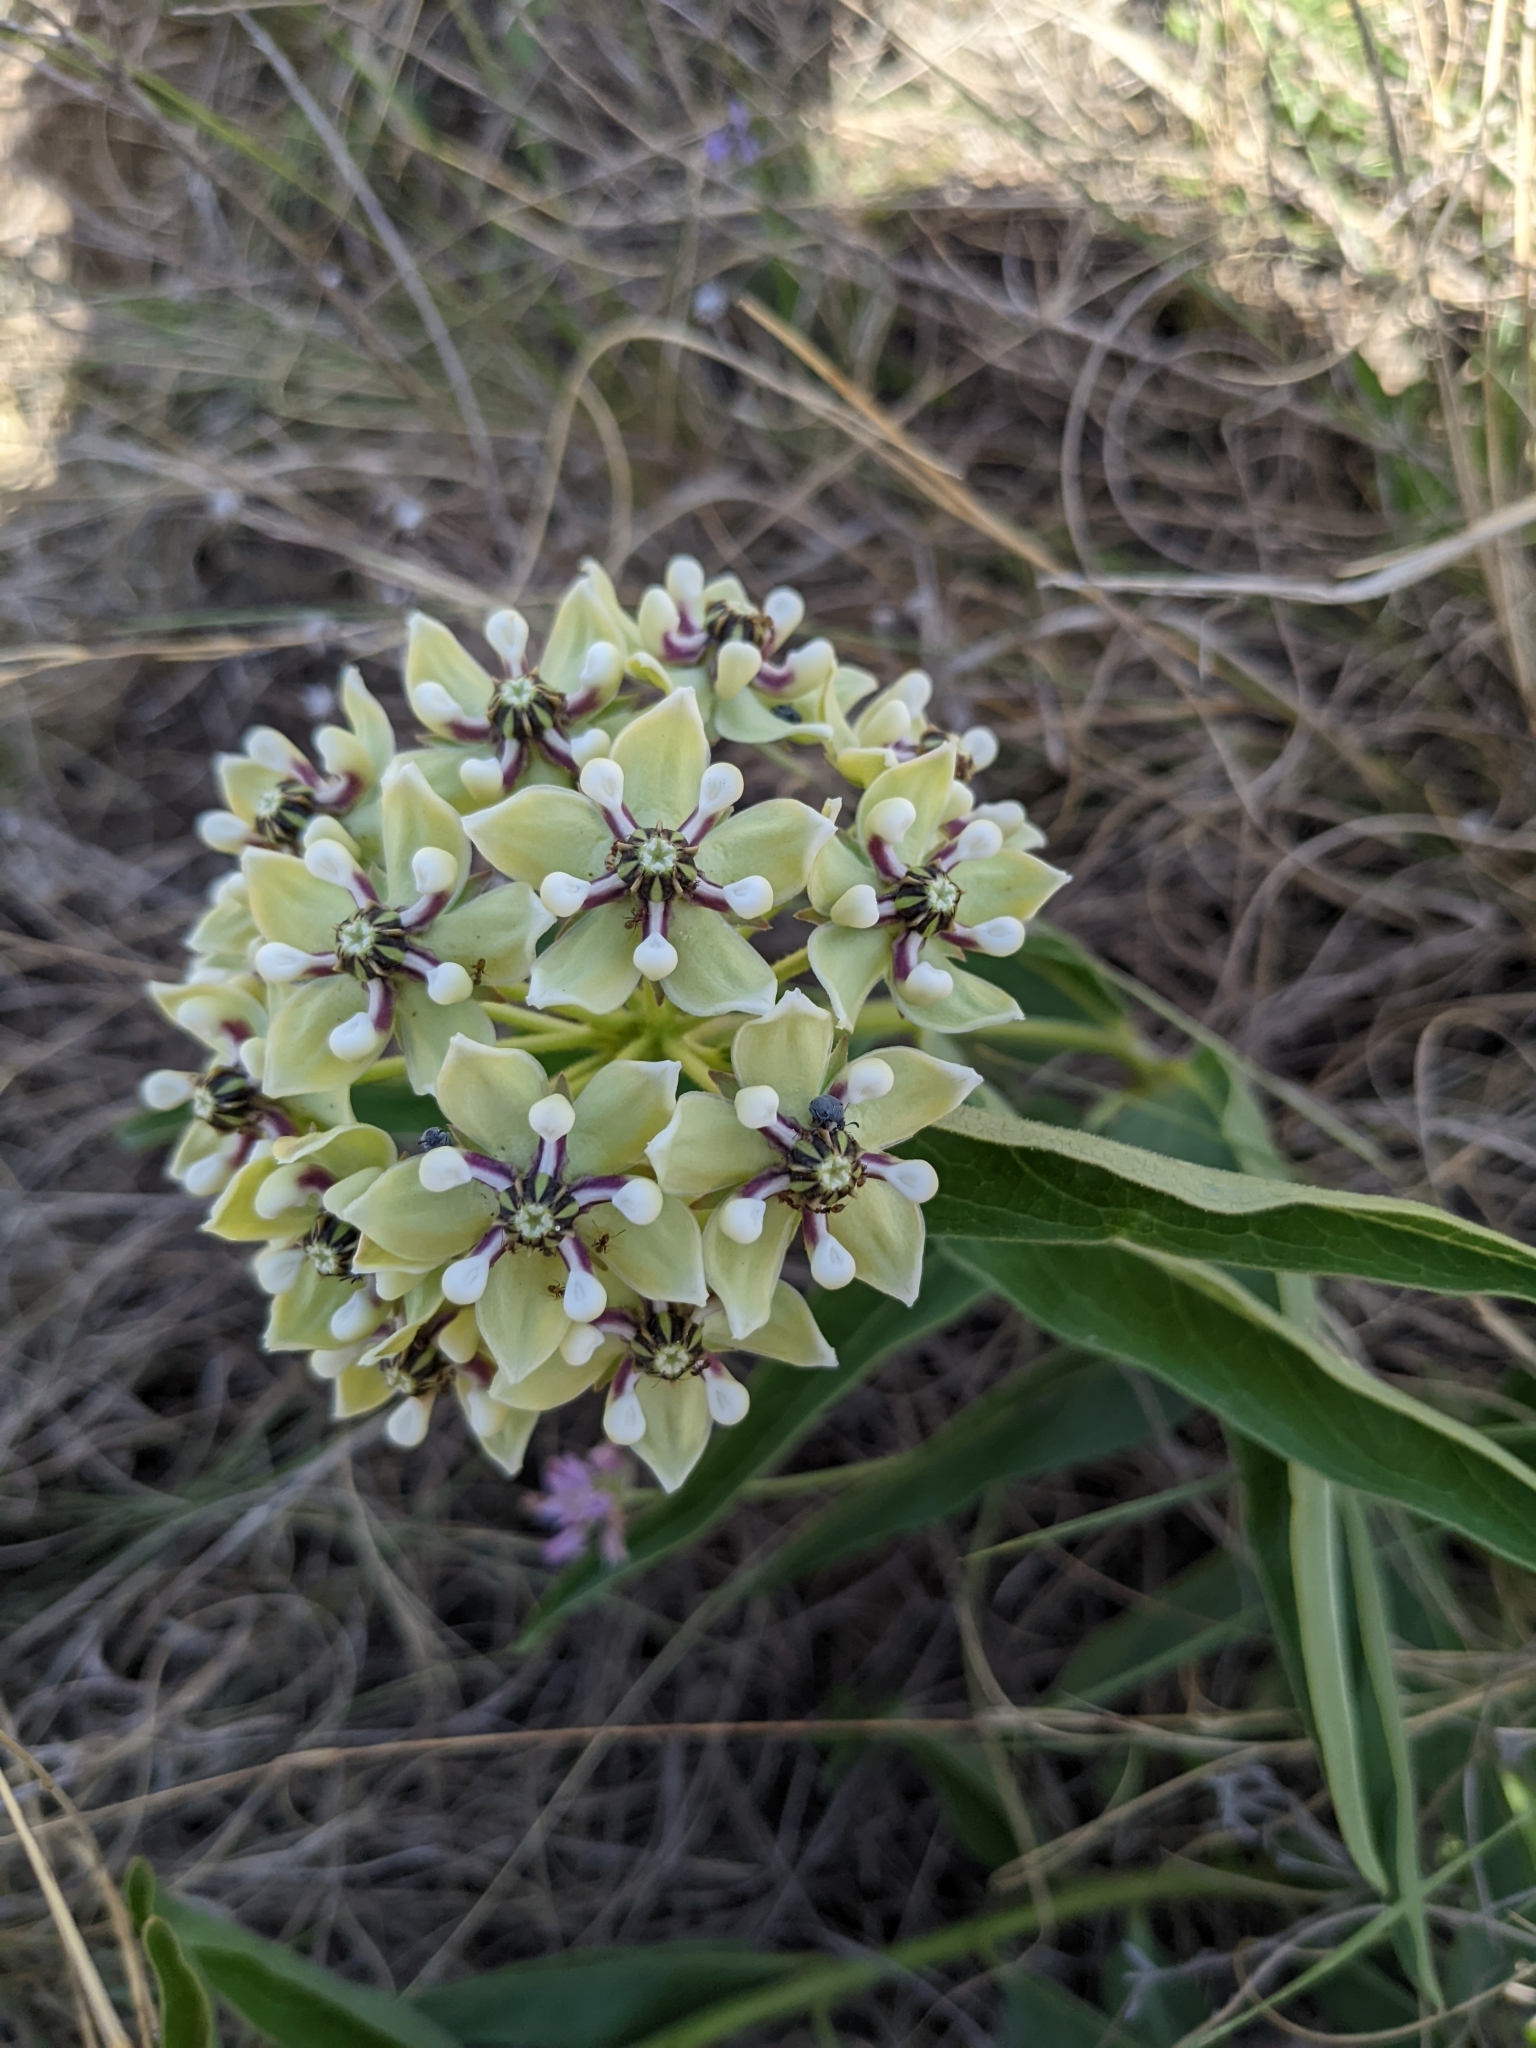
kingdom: Plantae
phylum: Tracheophyta
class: Magnoliopsida
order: Gentianales
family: Apocynaceae
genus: Asclepias
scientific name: Asclepias asperula
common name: Antelope horns
